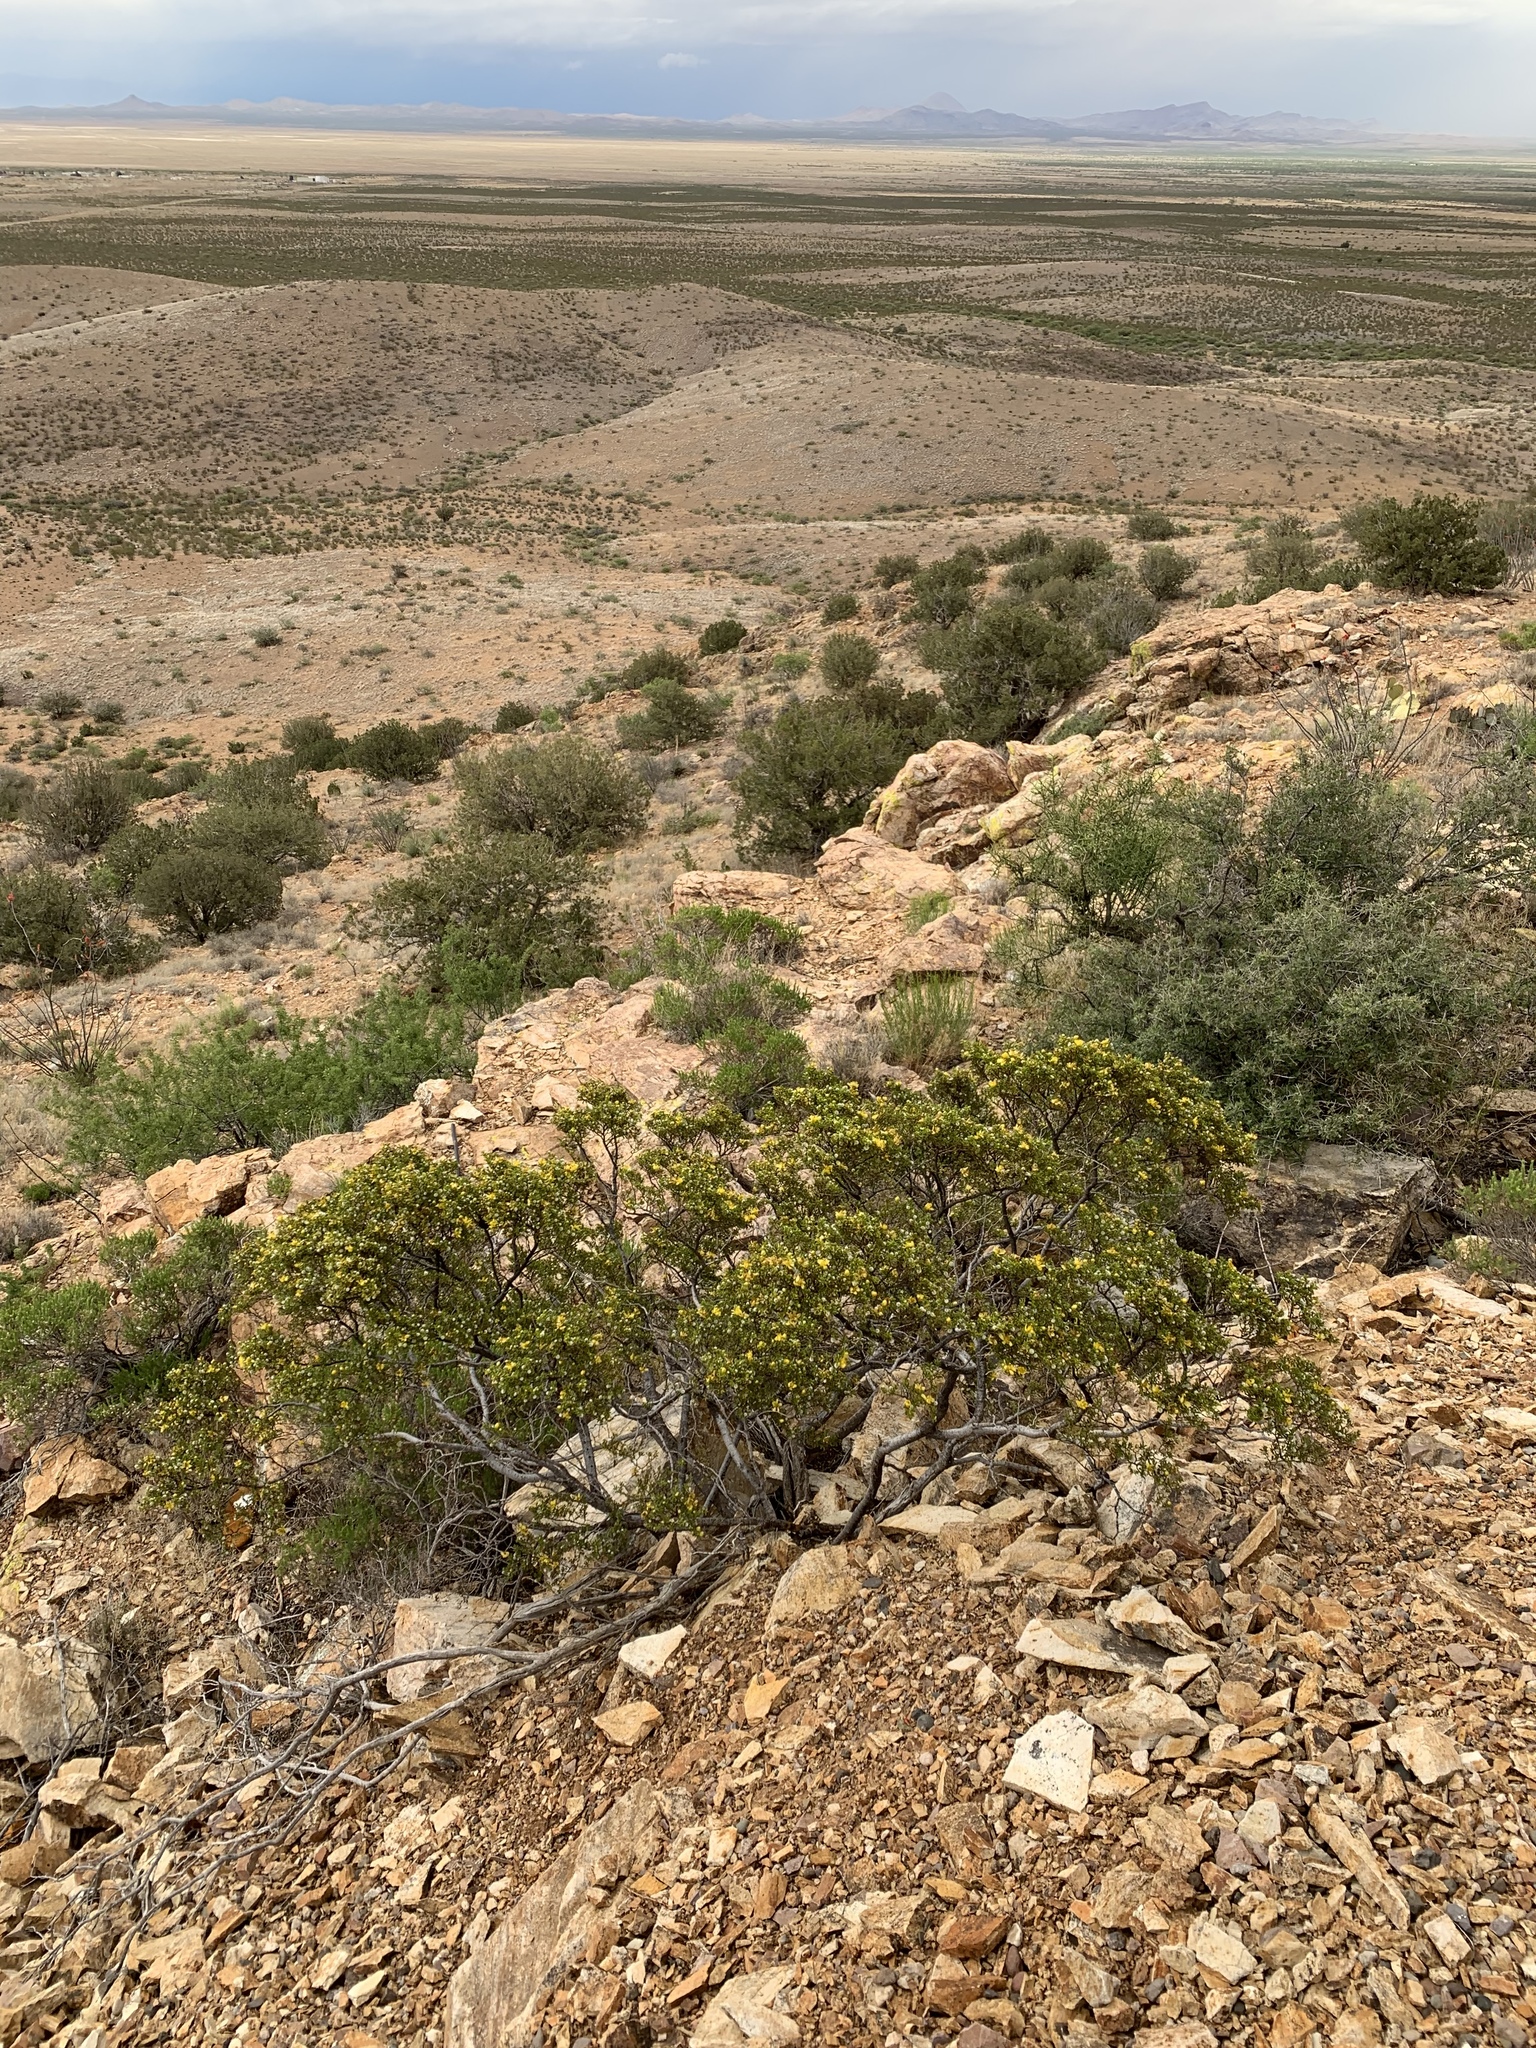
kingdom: Plantae
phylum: Tracheophyta
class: Magnoliopsida
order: Zygophyllales
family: Zygophyllaceae
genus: Larrea
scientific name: Larrea tridentata
